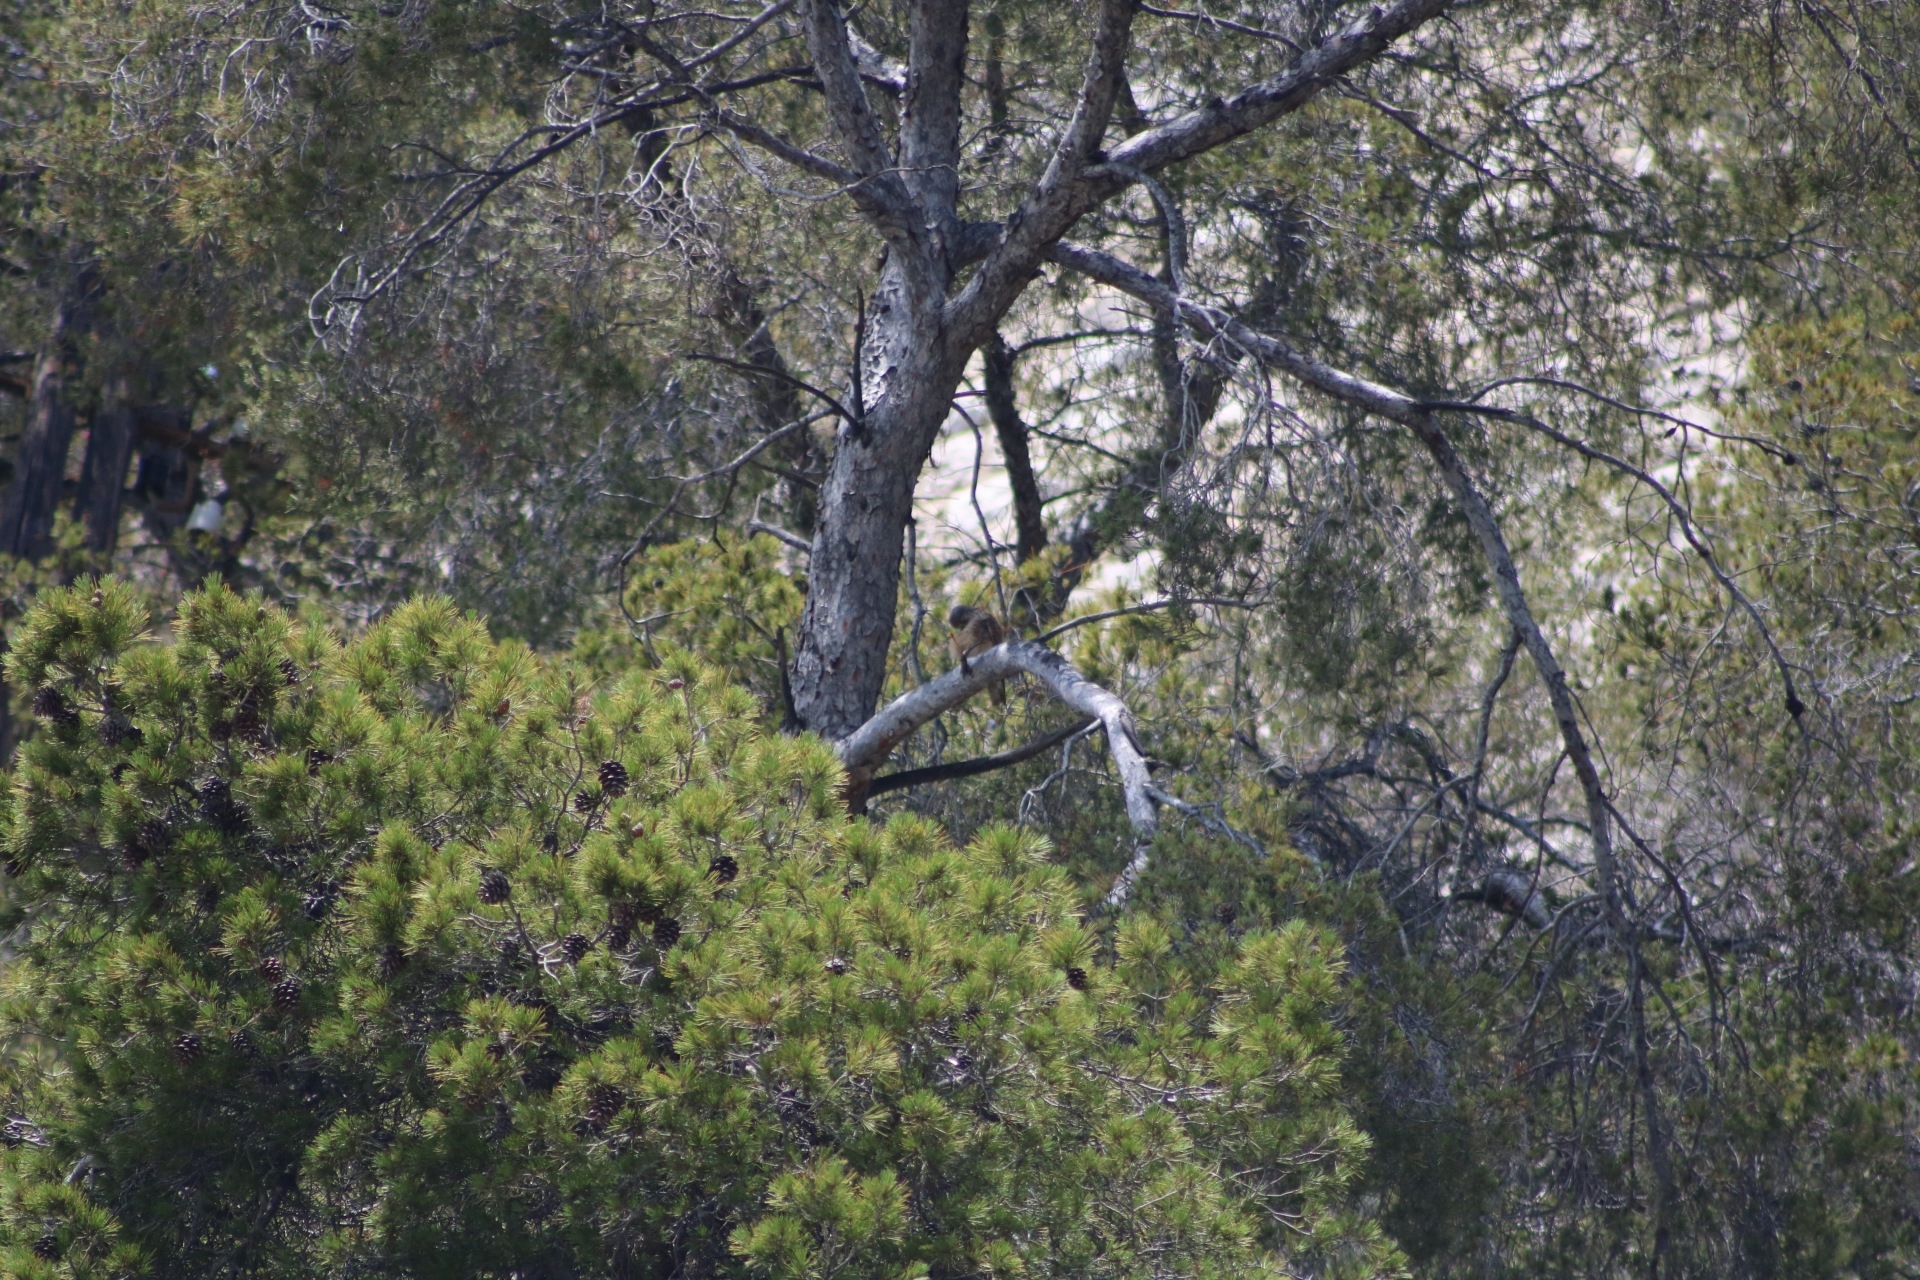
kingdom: Animalia
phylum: Chordata
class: Aves
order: Falconiformes
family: Falconidae
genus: Falco
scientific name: Falco tinnunculus
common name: Common kestrel
